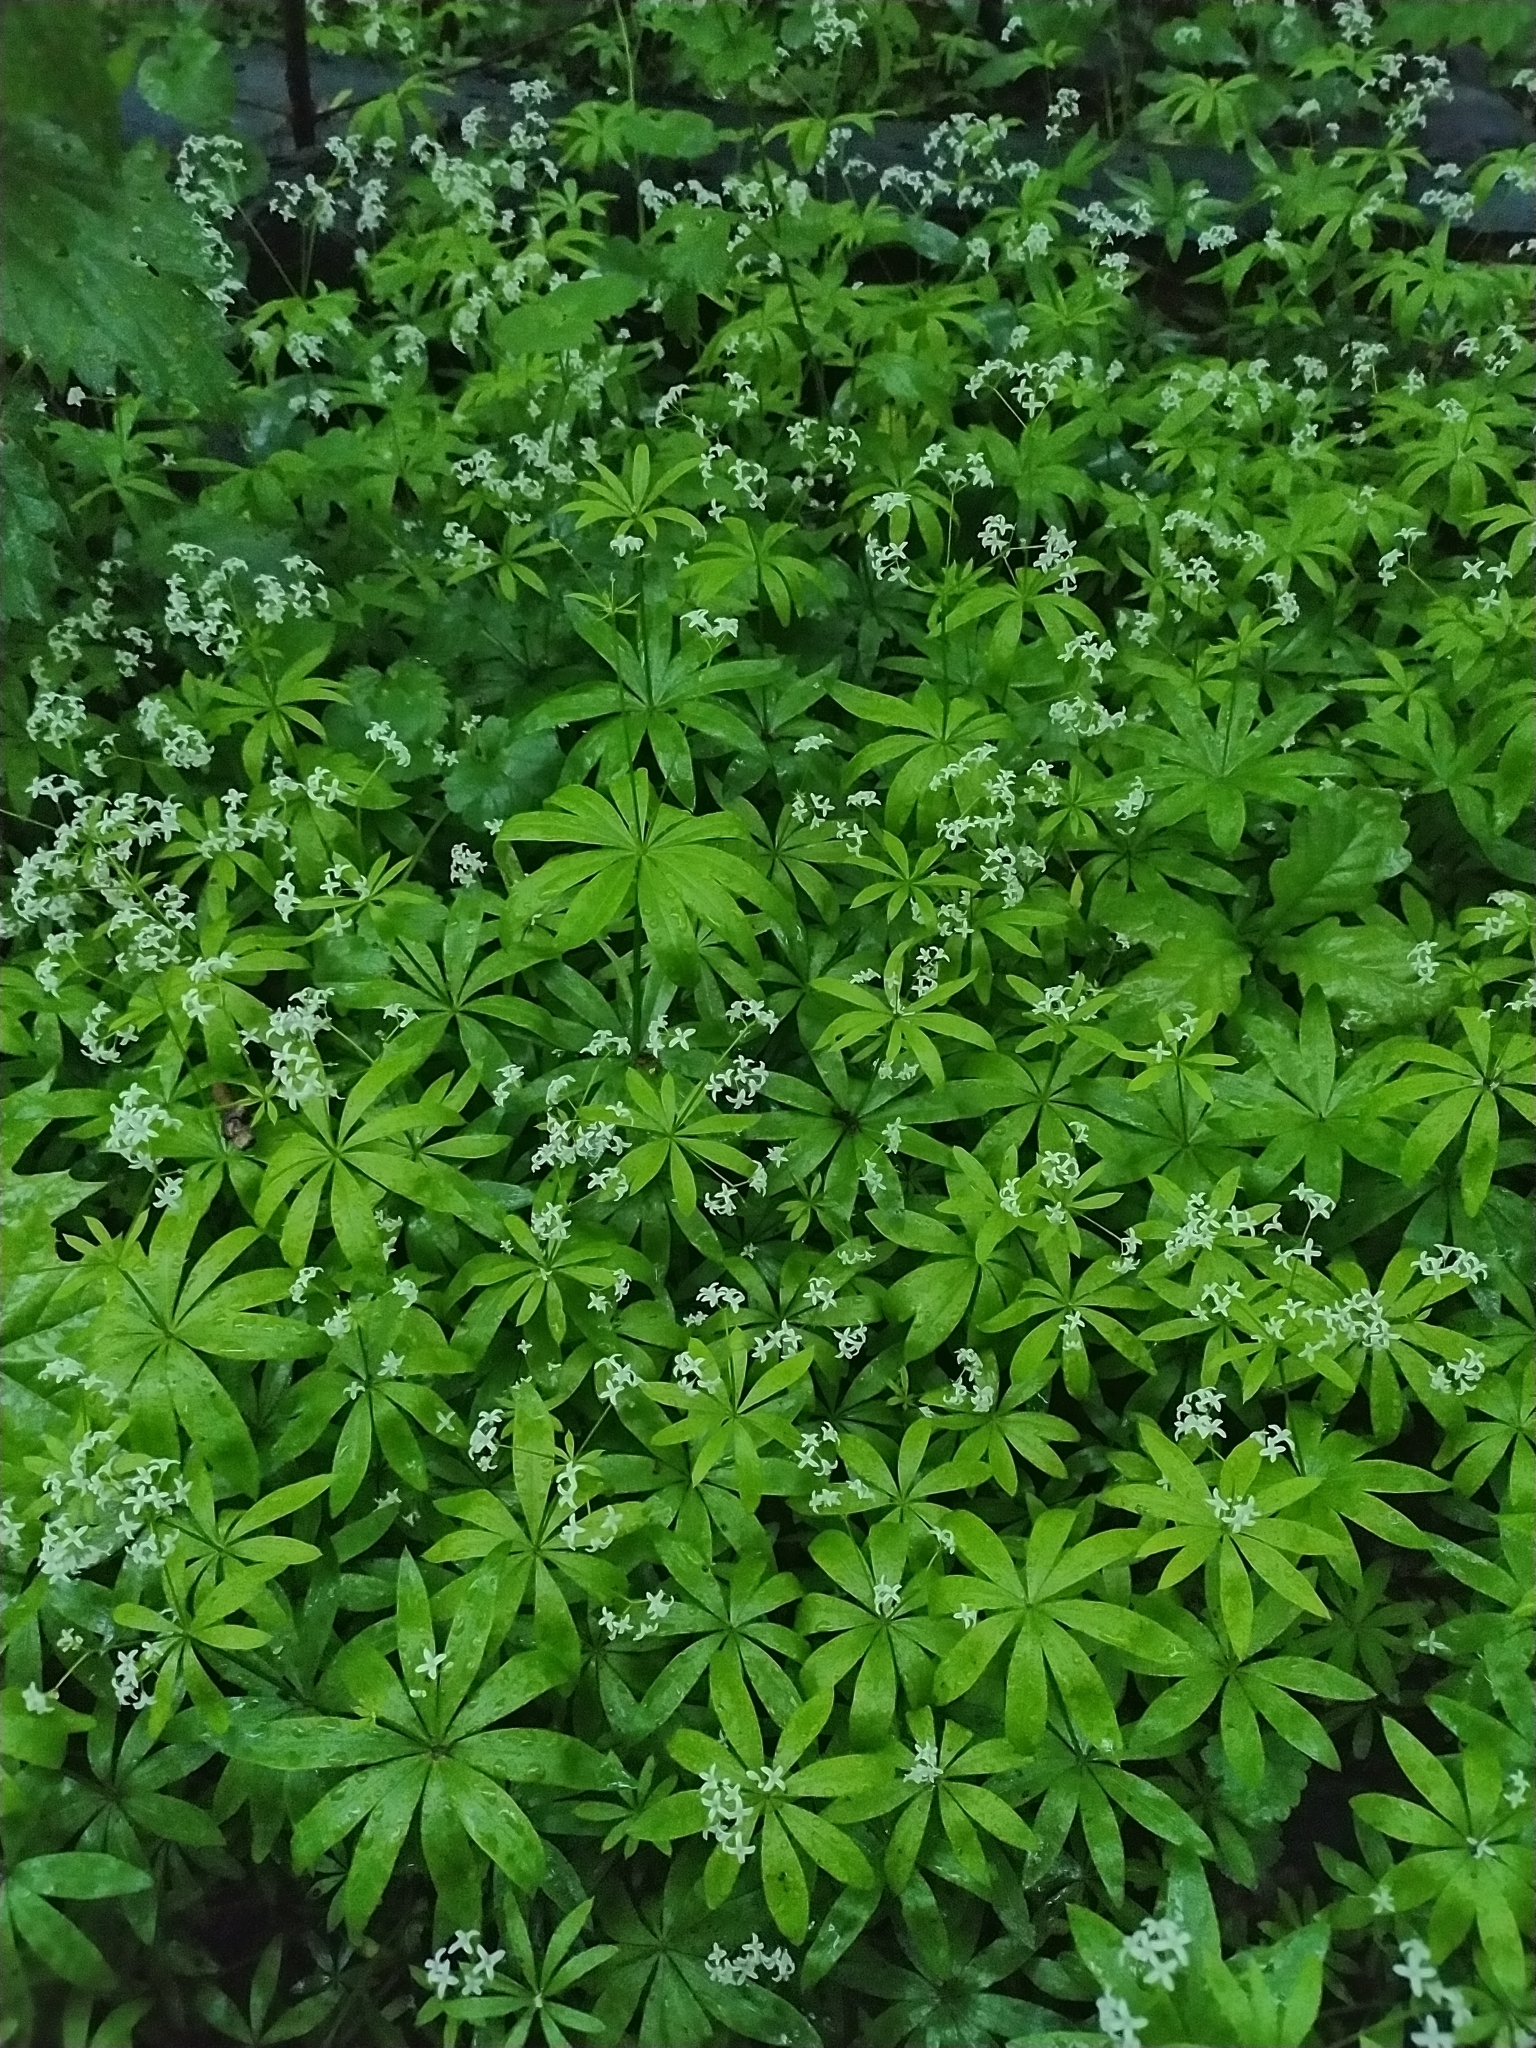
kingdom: Plantae
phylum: Tracheophyta
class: Magnoliopsida
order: Gentianales
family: Rubiaceae
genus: Galium
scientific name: Galium odoratum
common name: Sweet woodruff
